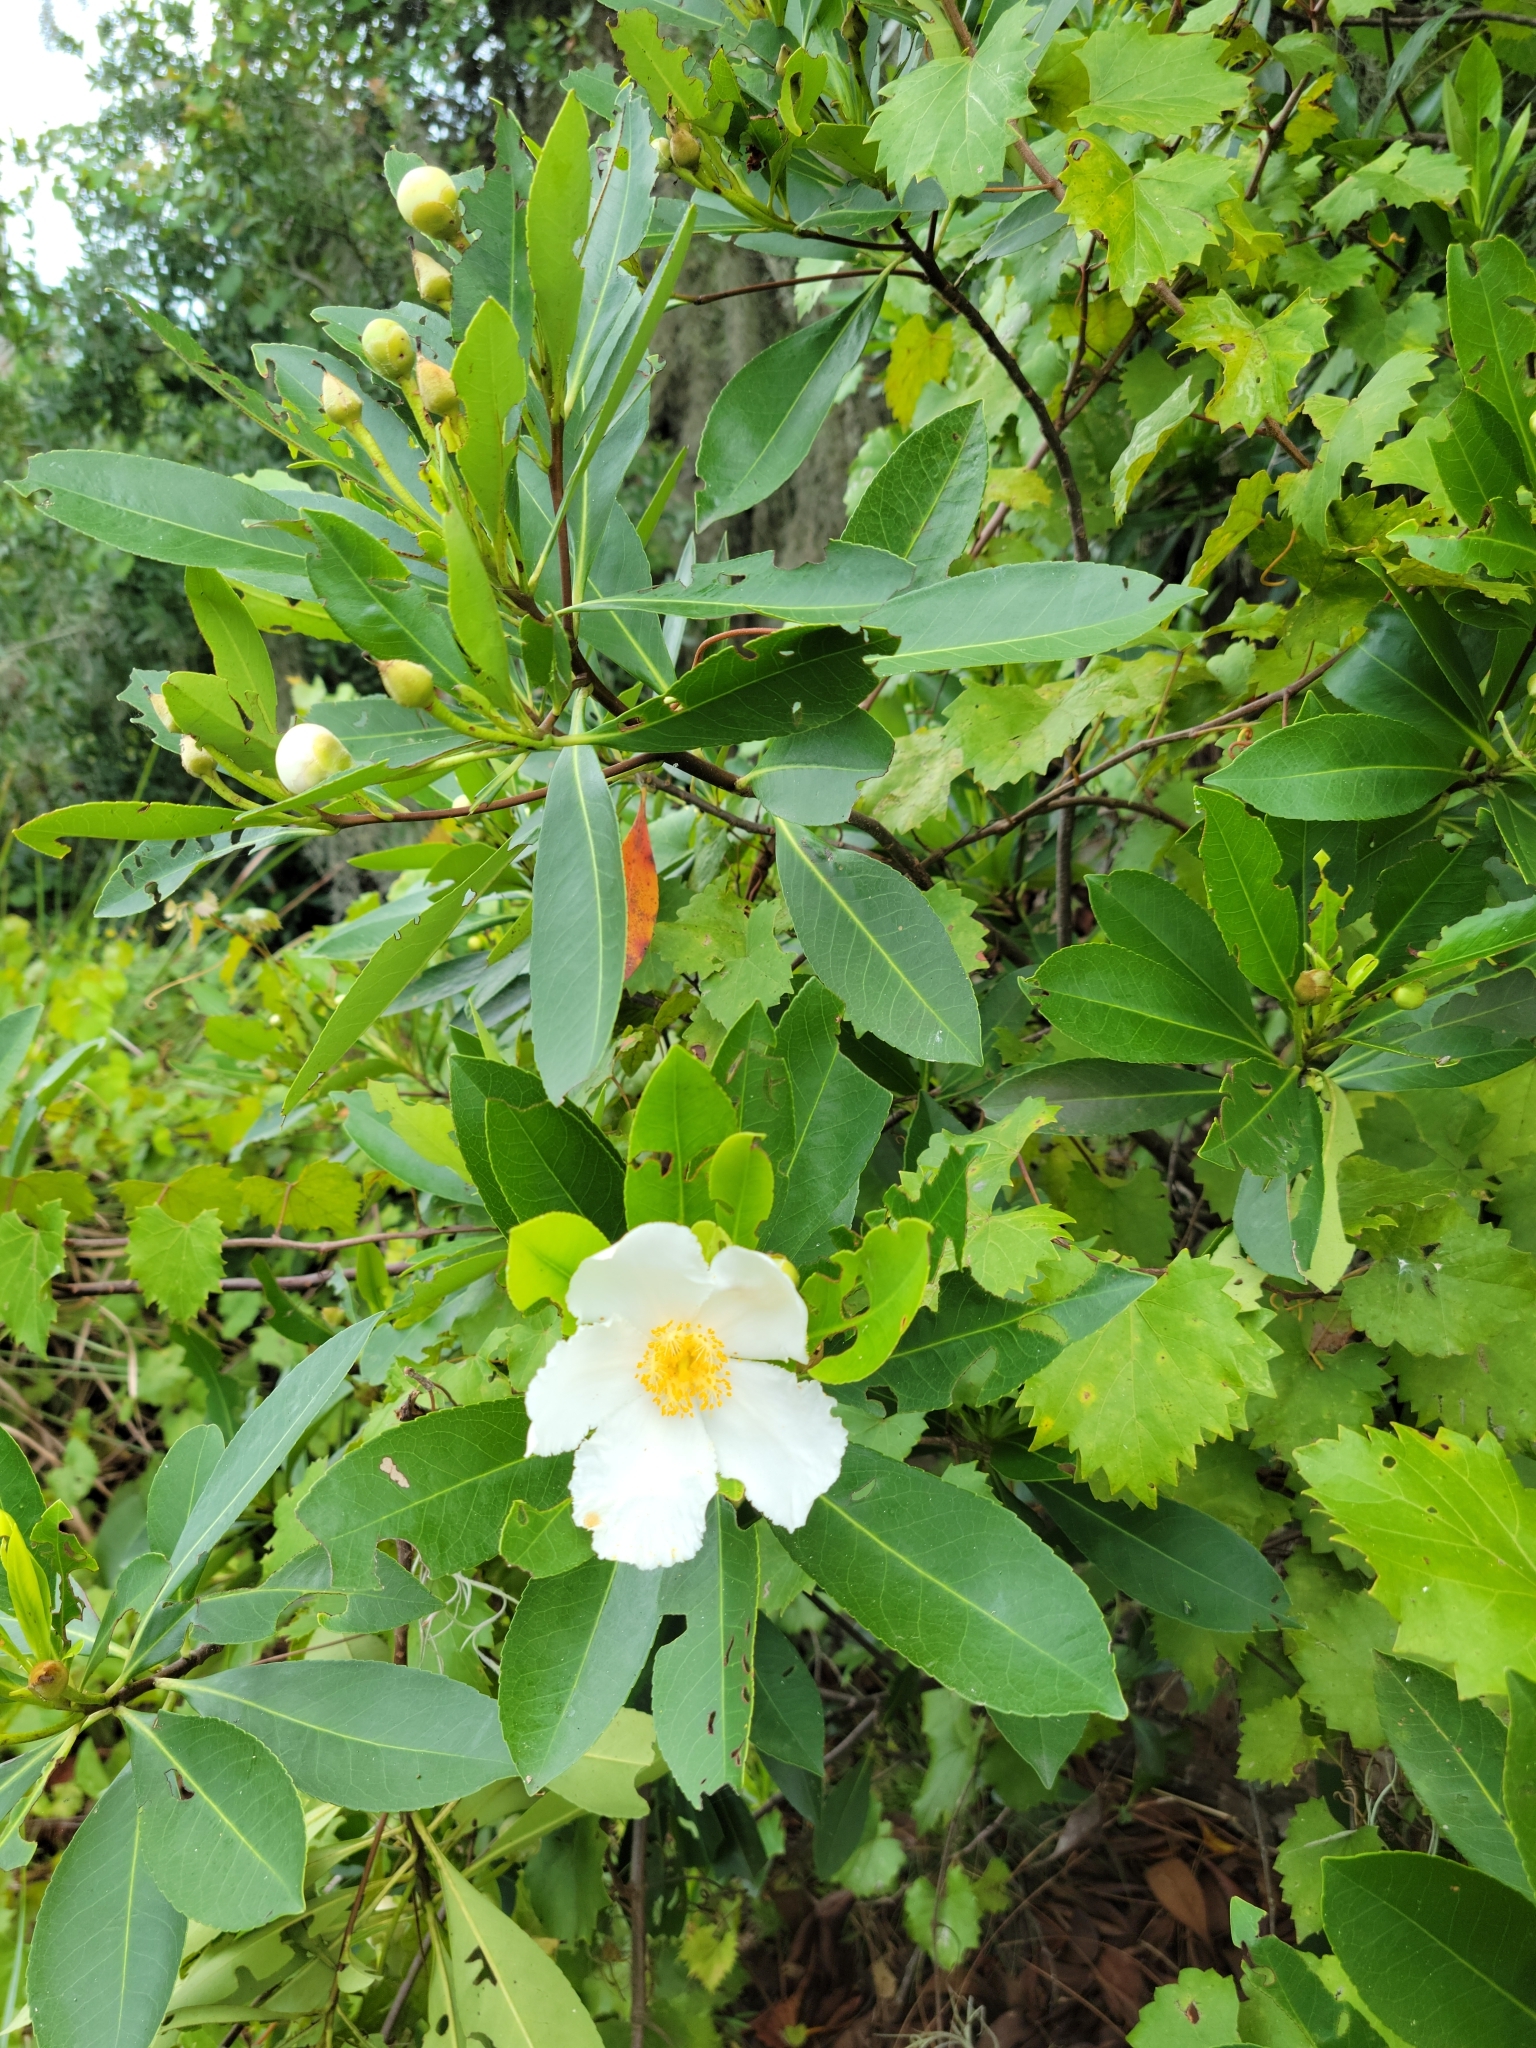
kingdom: Plantae
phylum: Tracheophyta
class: Magnoliopsida
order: Ericales
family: Theaceae
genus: Gordonia
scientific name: Gordonia lasianthus
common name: Loblolly bay
